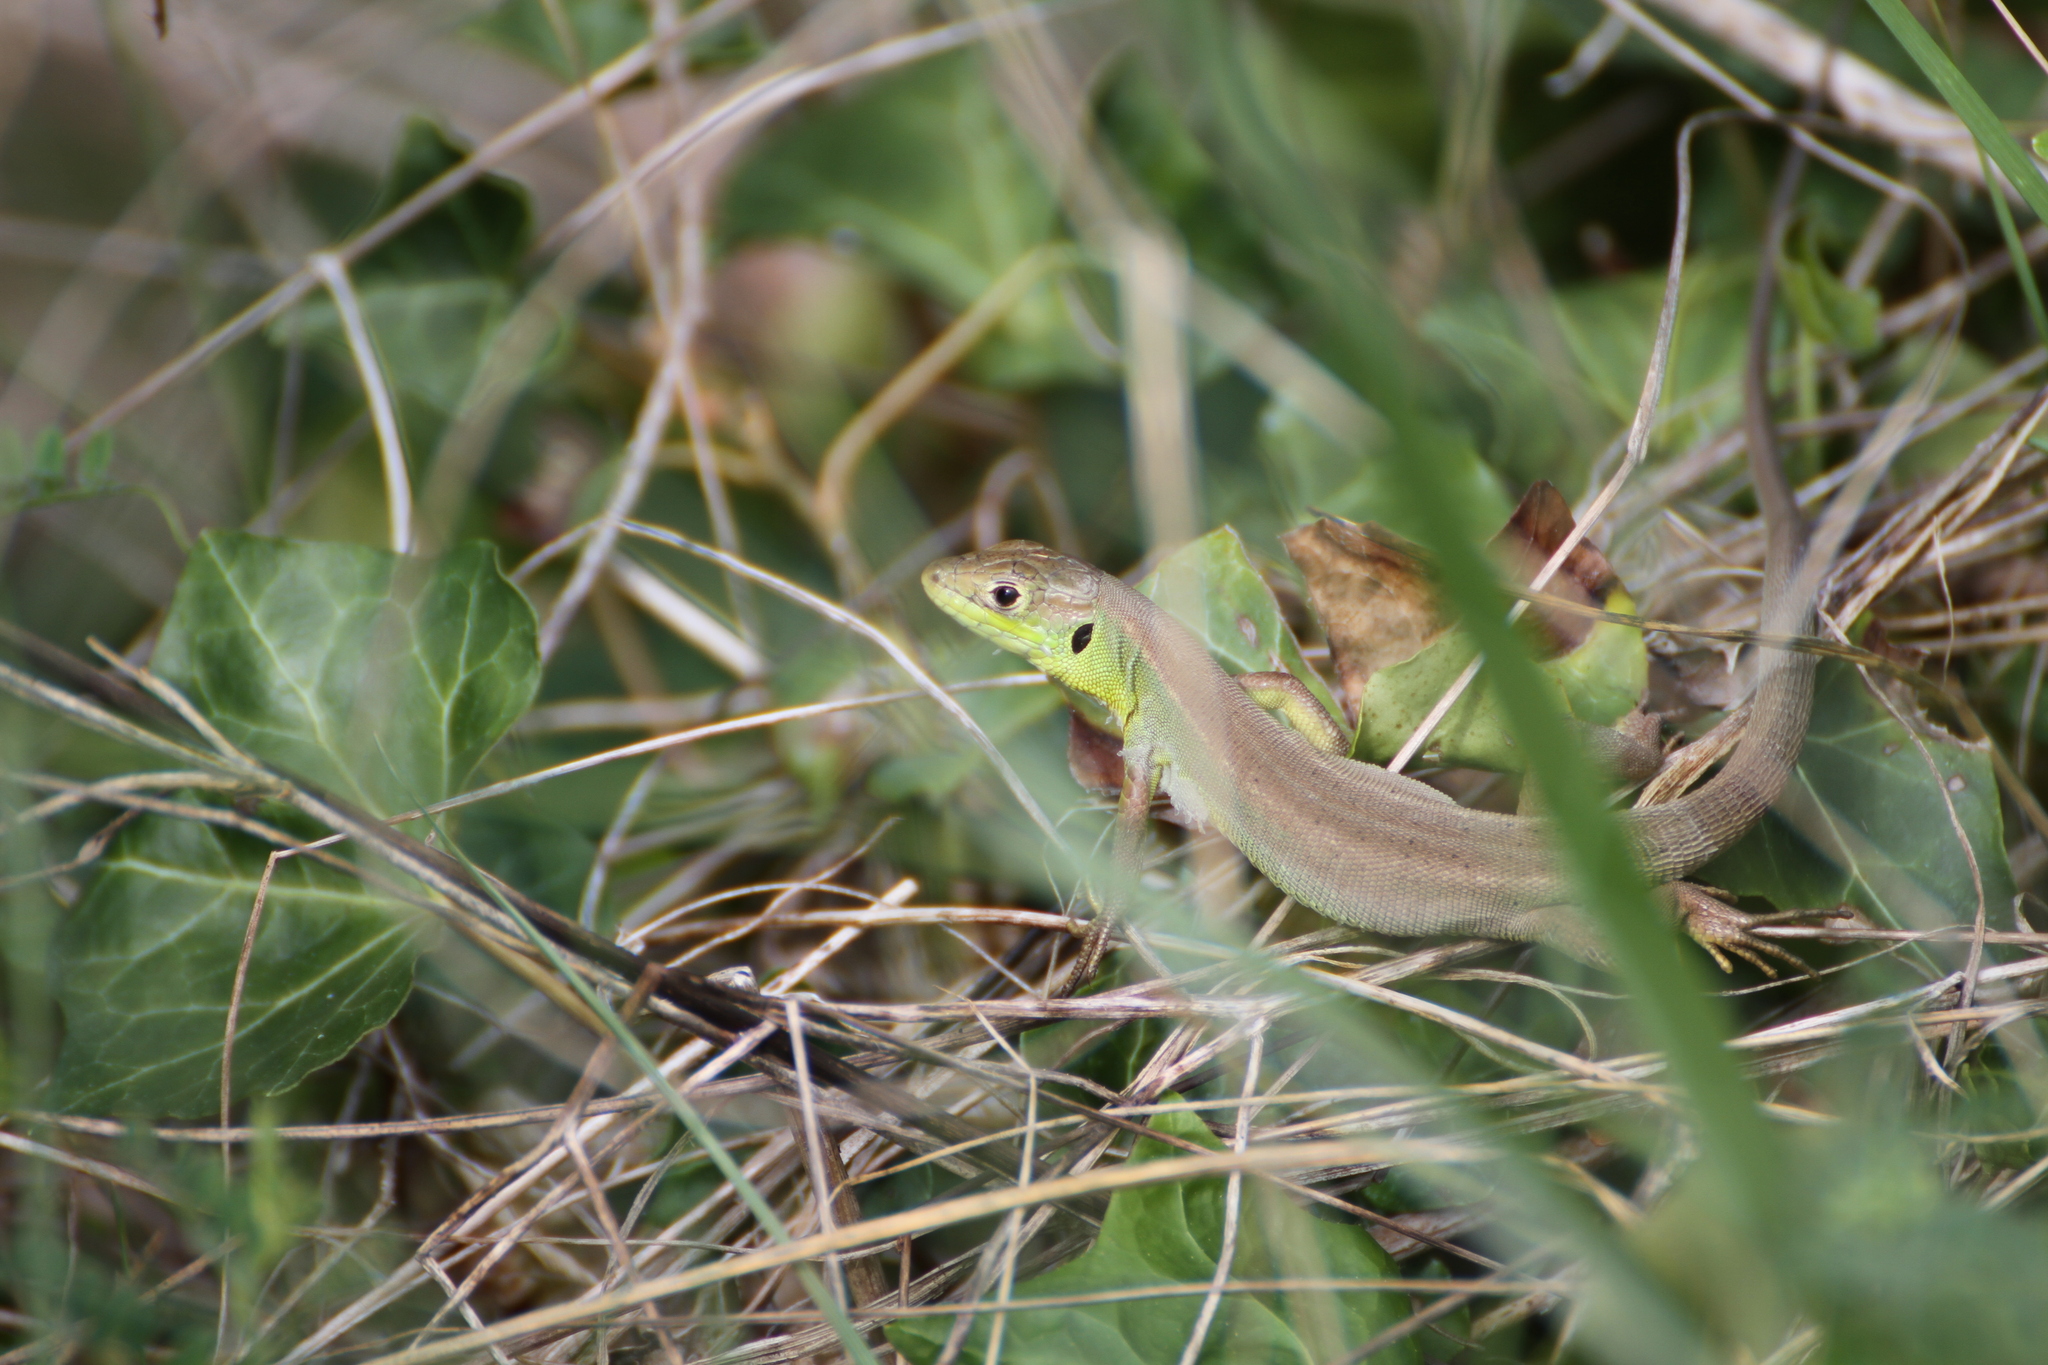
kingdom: Animalia
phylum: Chordata
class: Squamata
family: Lacertidae
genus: Lacerta
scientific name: Lacerta bilineata
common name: Western green lizard
